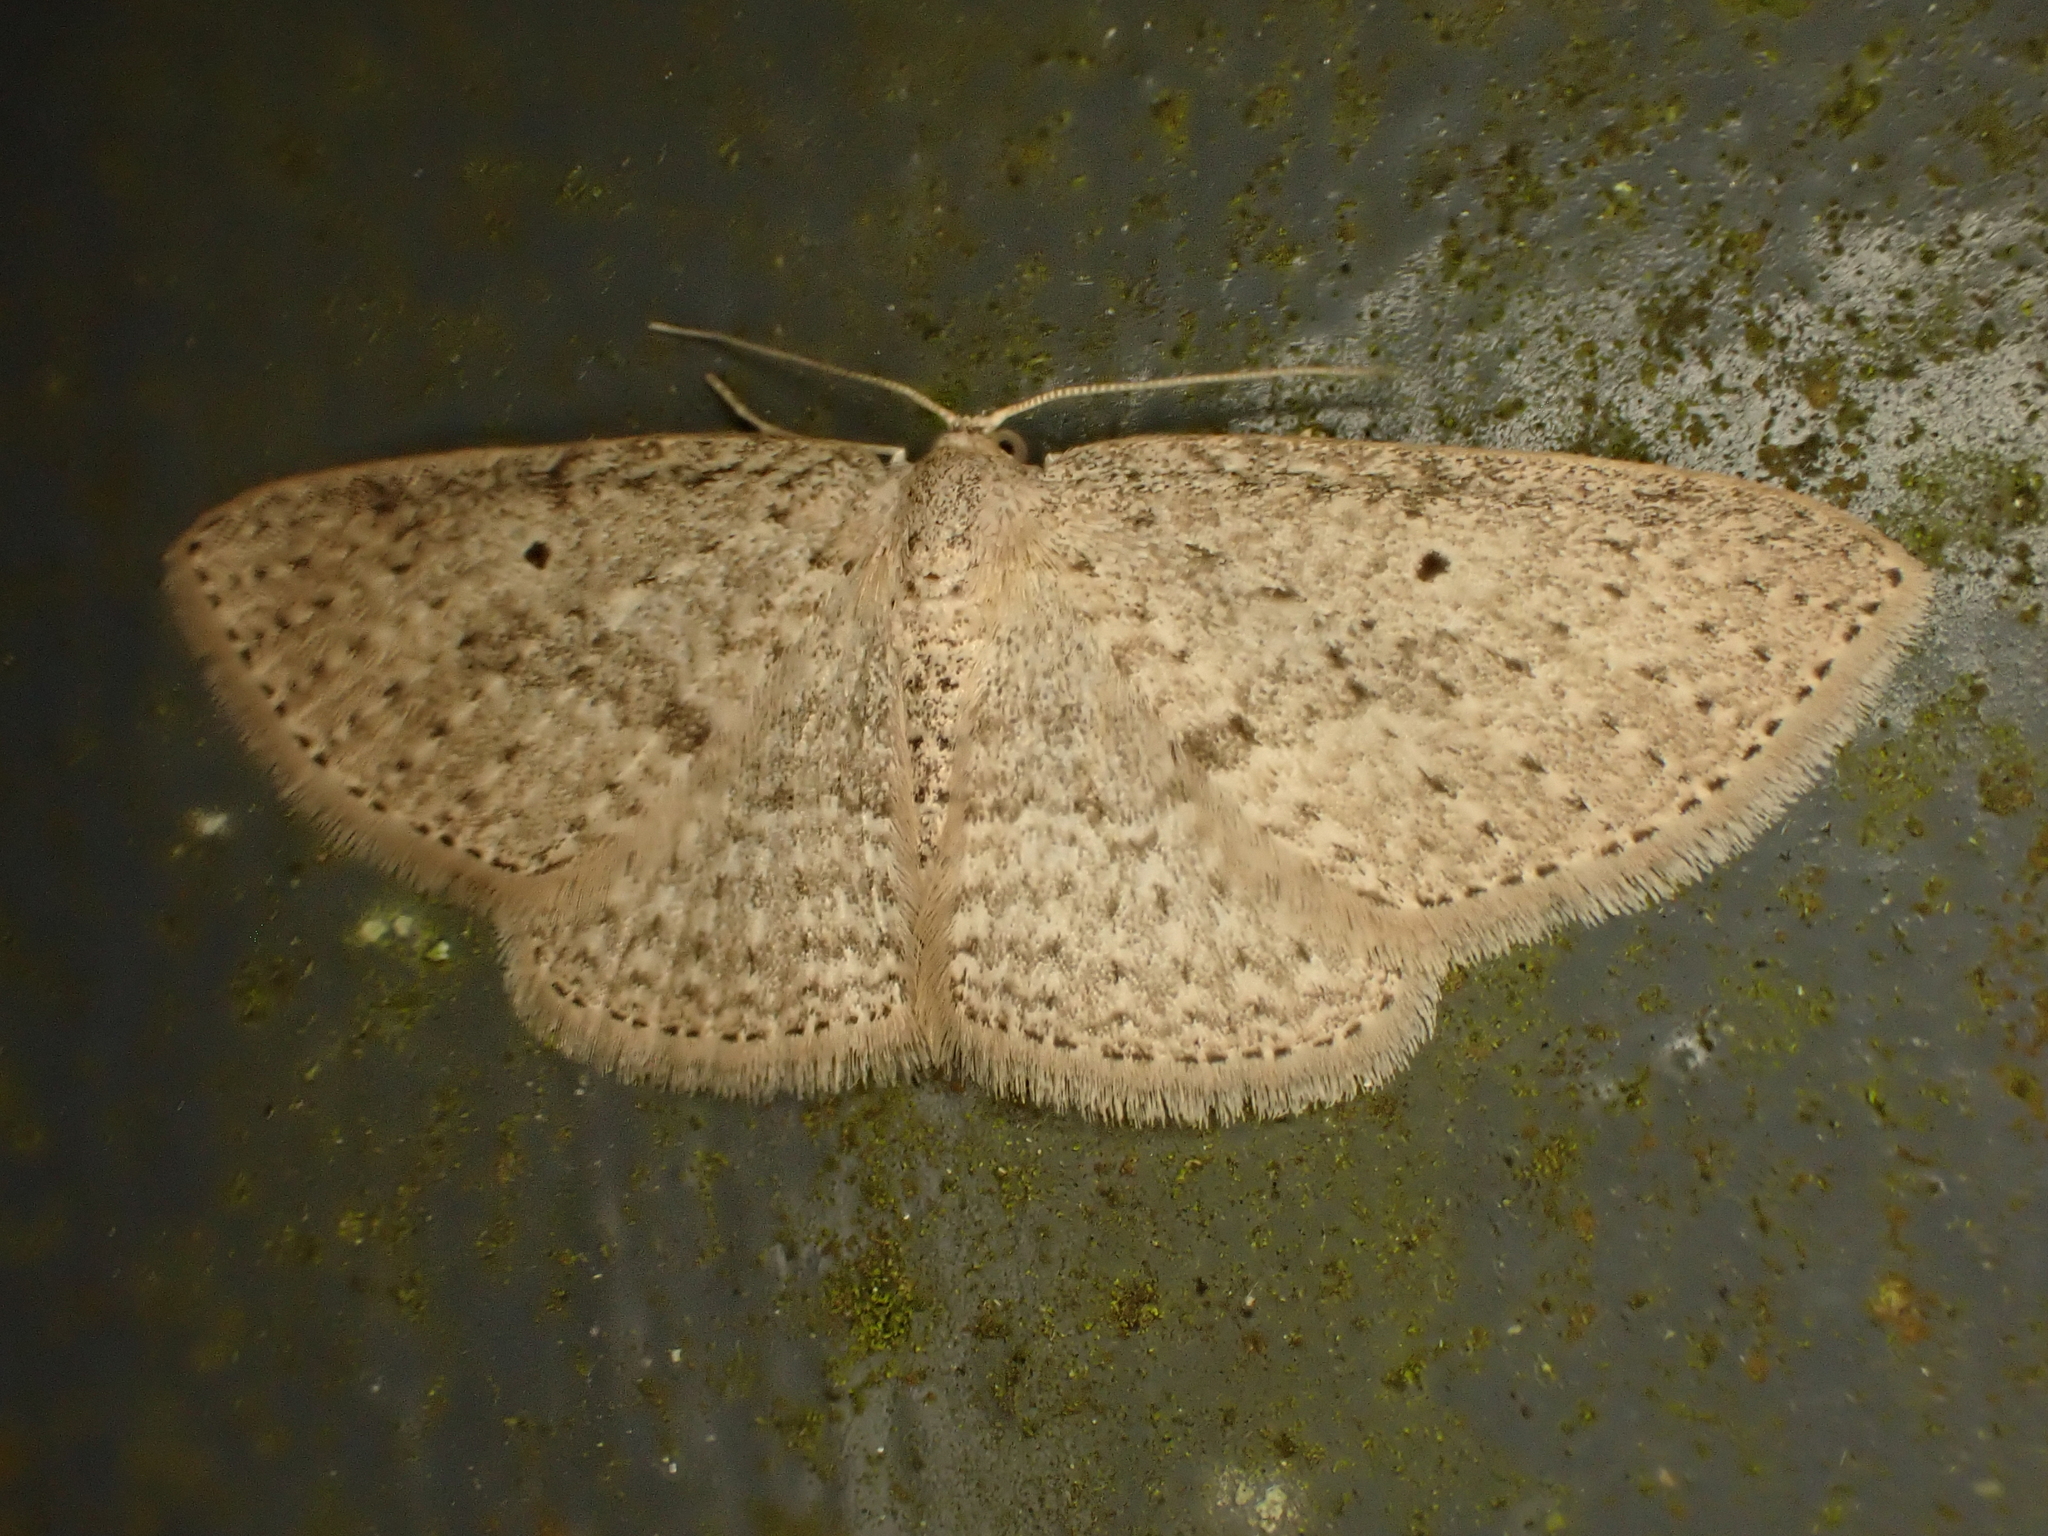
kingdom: Animalia
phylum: Arthropoda
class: Insecta
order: Lepidoptera
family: Geometridae
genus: Poecilasthena
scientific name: Poecilasthena schistaria
